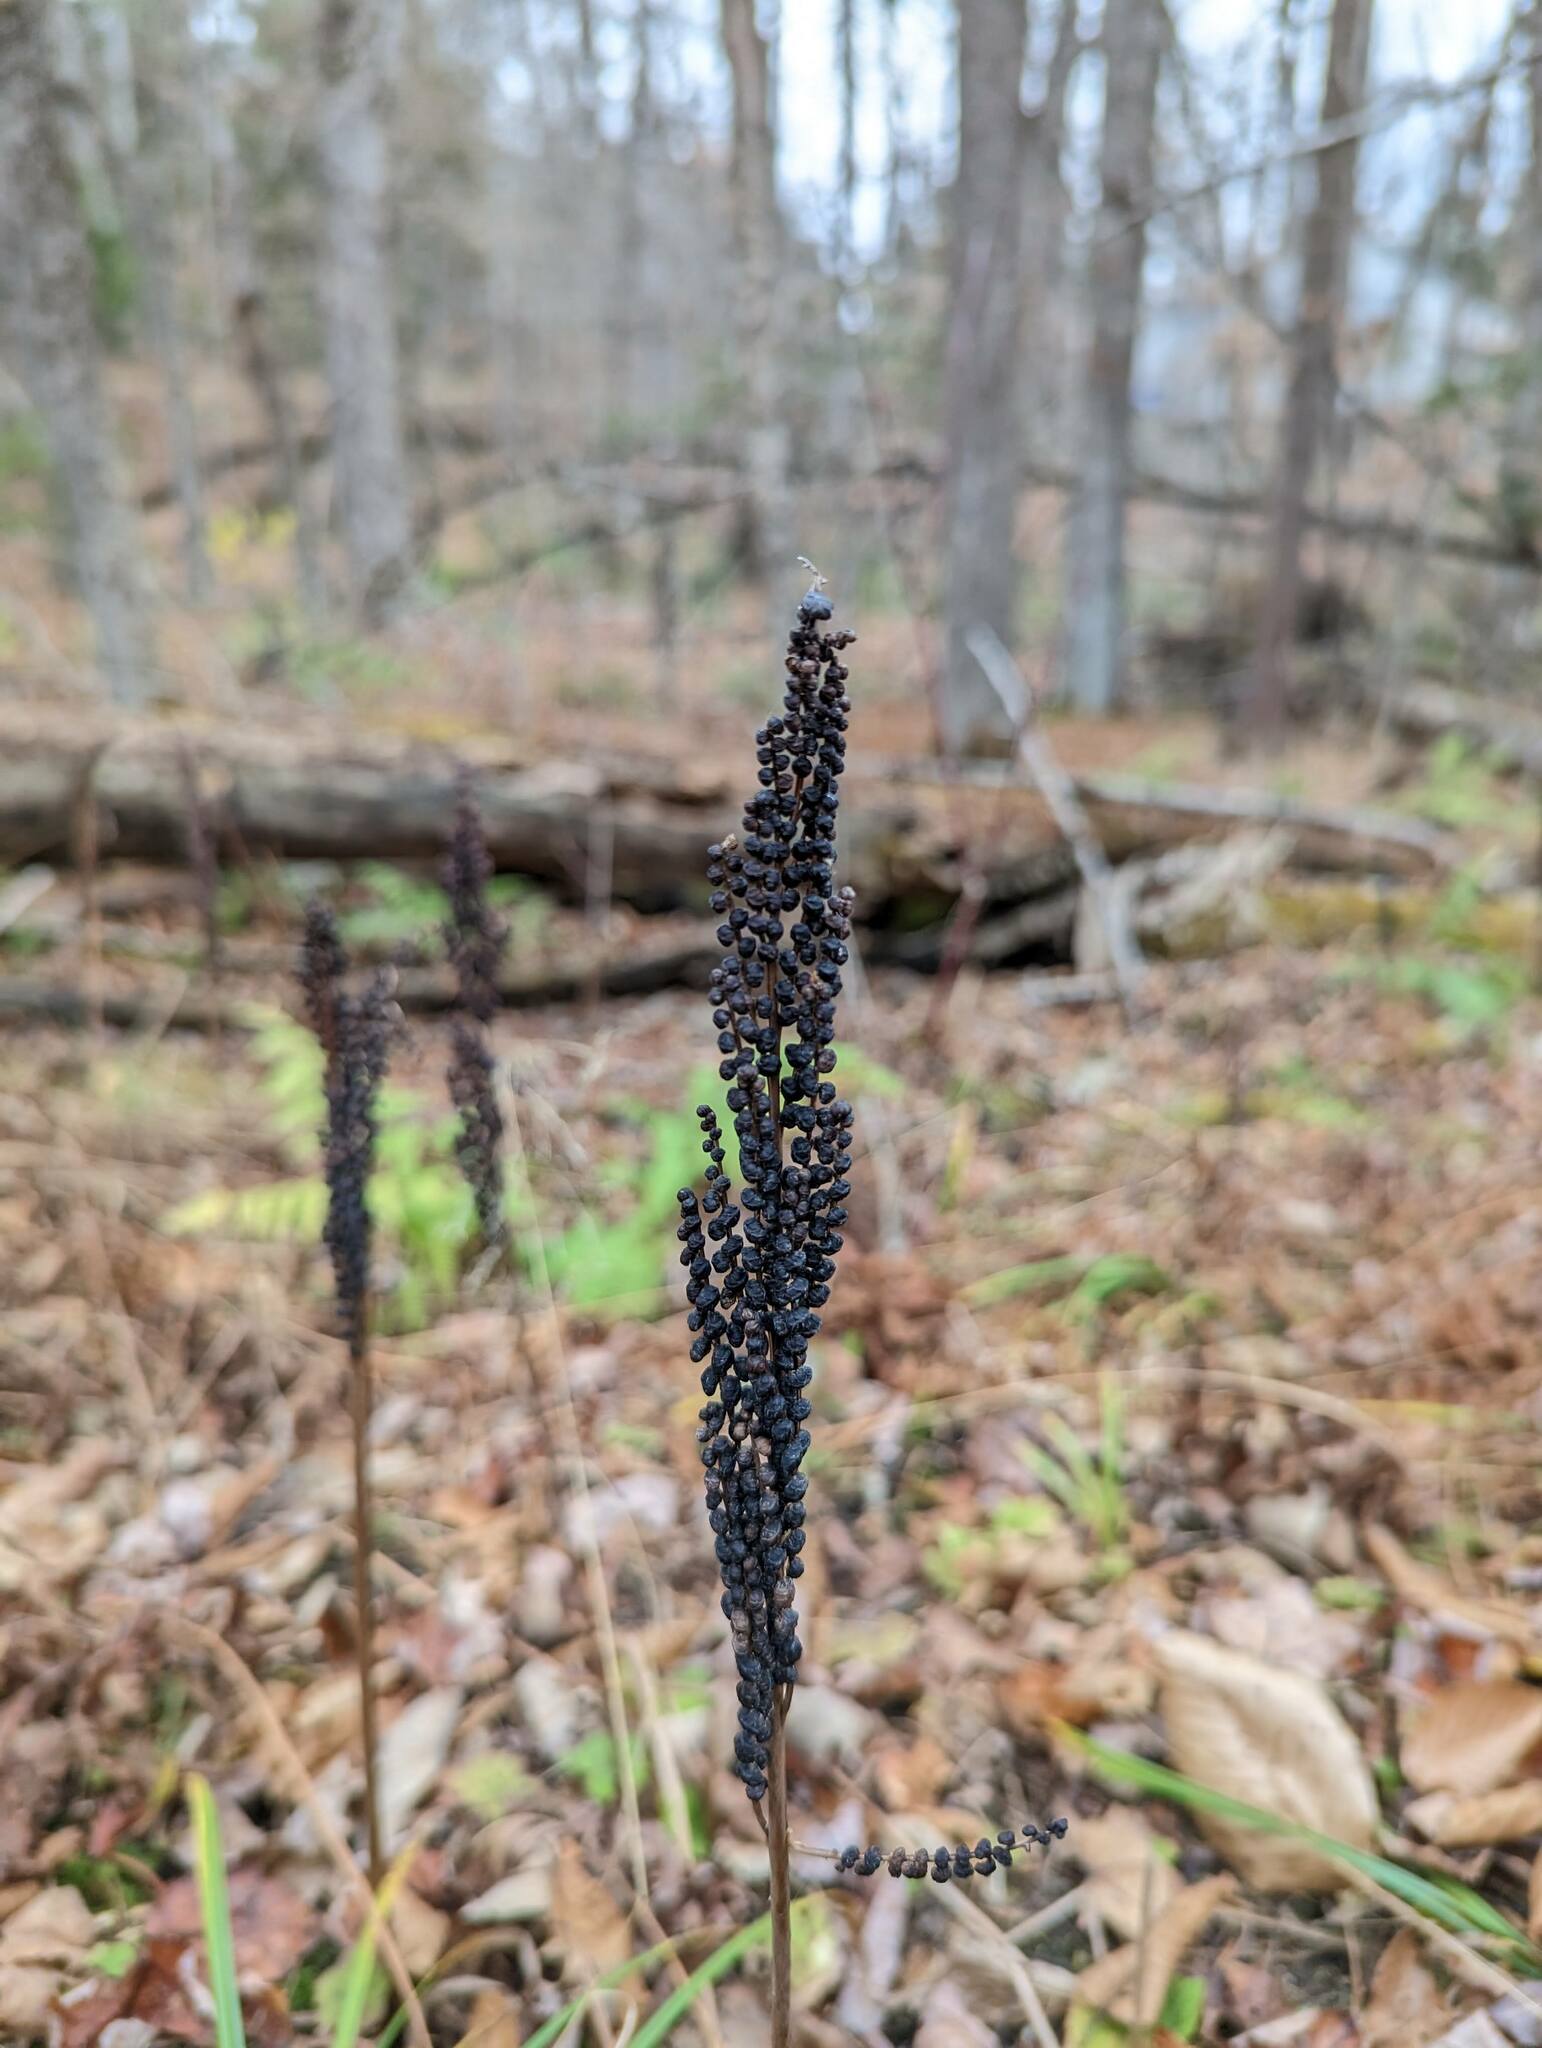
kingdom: Plantae
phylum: Tracheophyta
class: Polypodiopsida
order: Polypodiales
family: Onocleaceae
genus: Onoclea
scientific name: Onoclea sensibilis
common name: Sensitive fern
